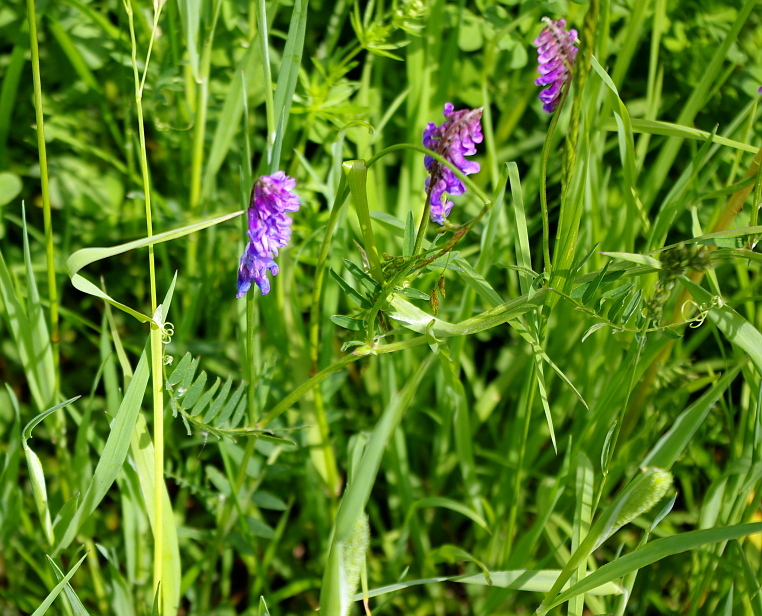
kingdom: Plantae
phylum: Tracheophyta
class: Magnoliopsida
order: Fabales
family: Fabaceae
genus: Vicia
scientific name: Vicia cracca
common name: Bird vetch
